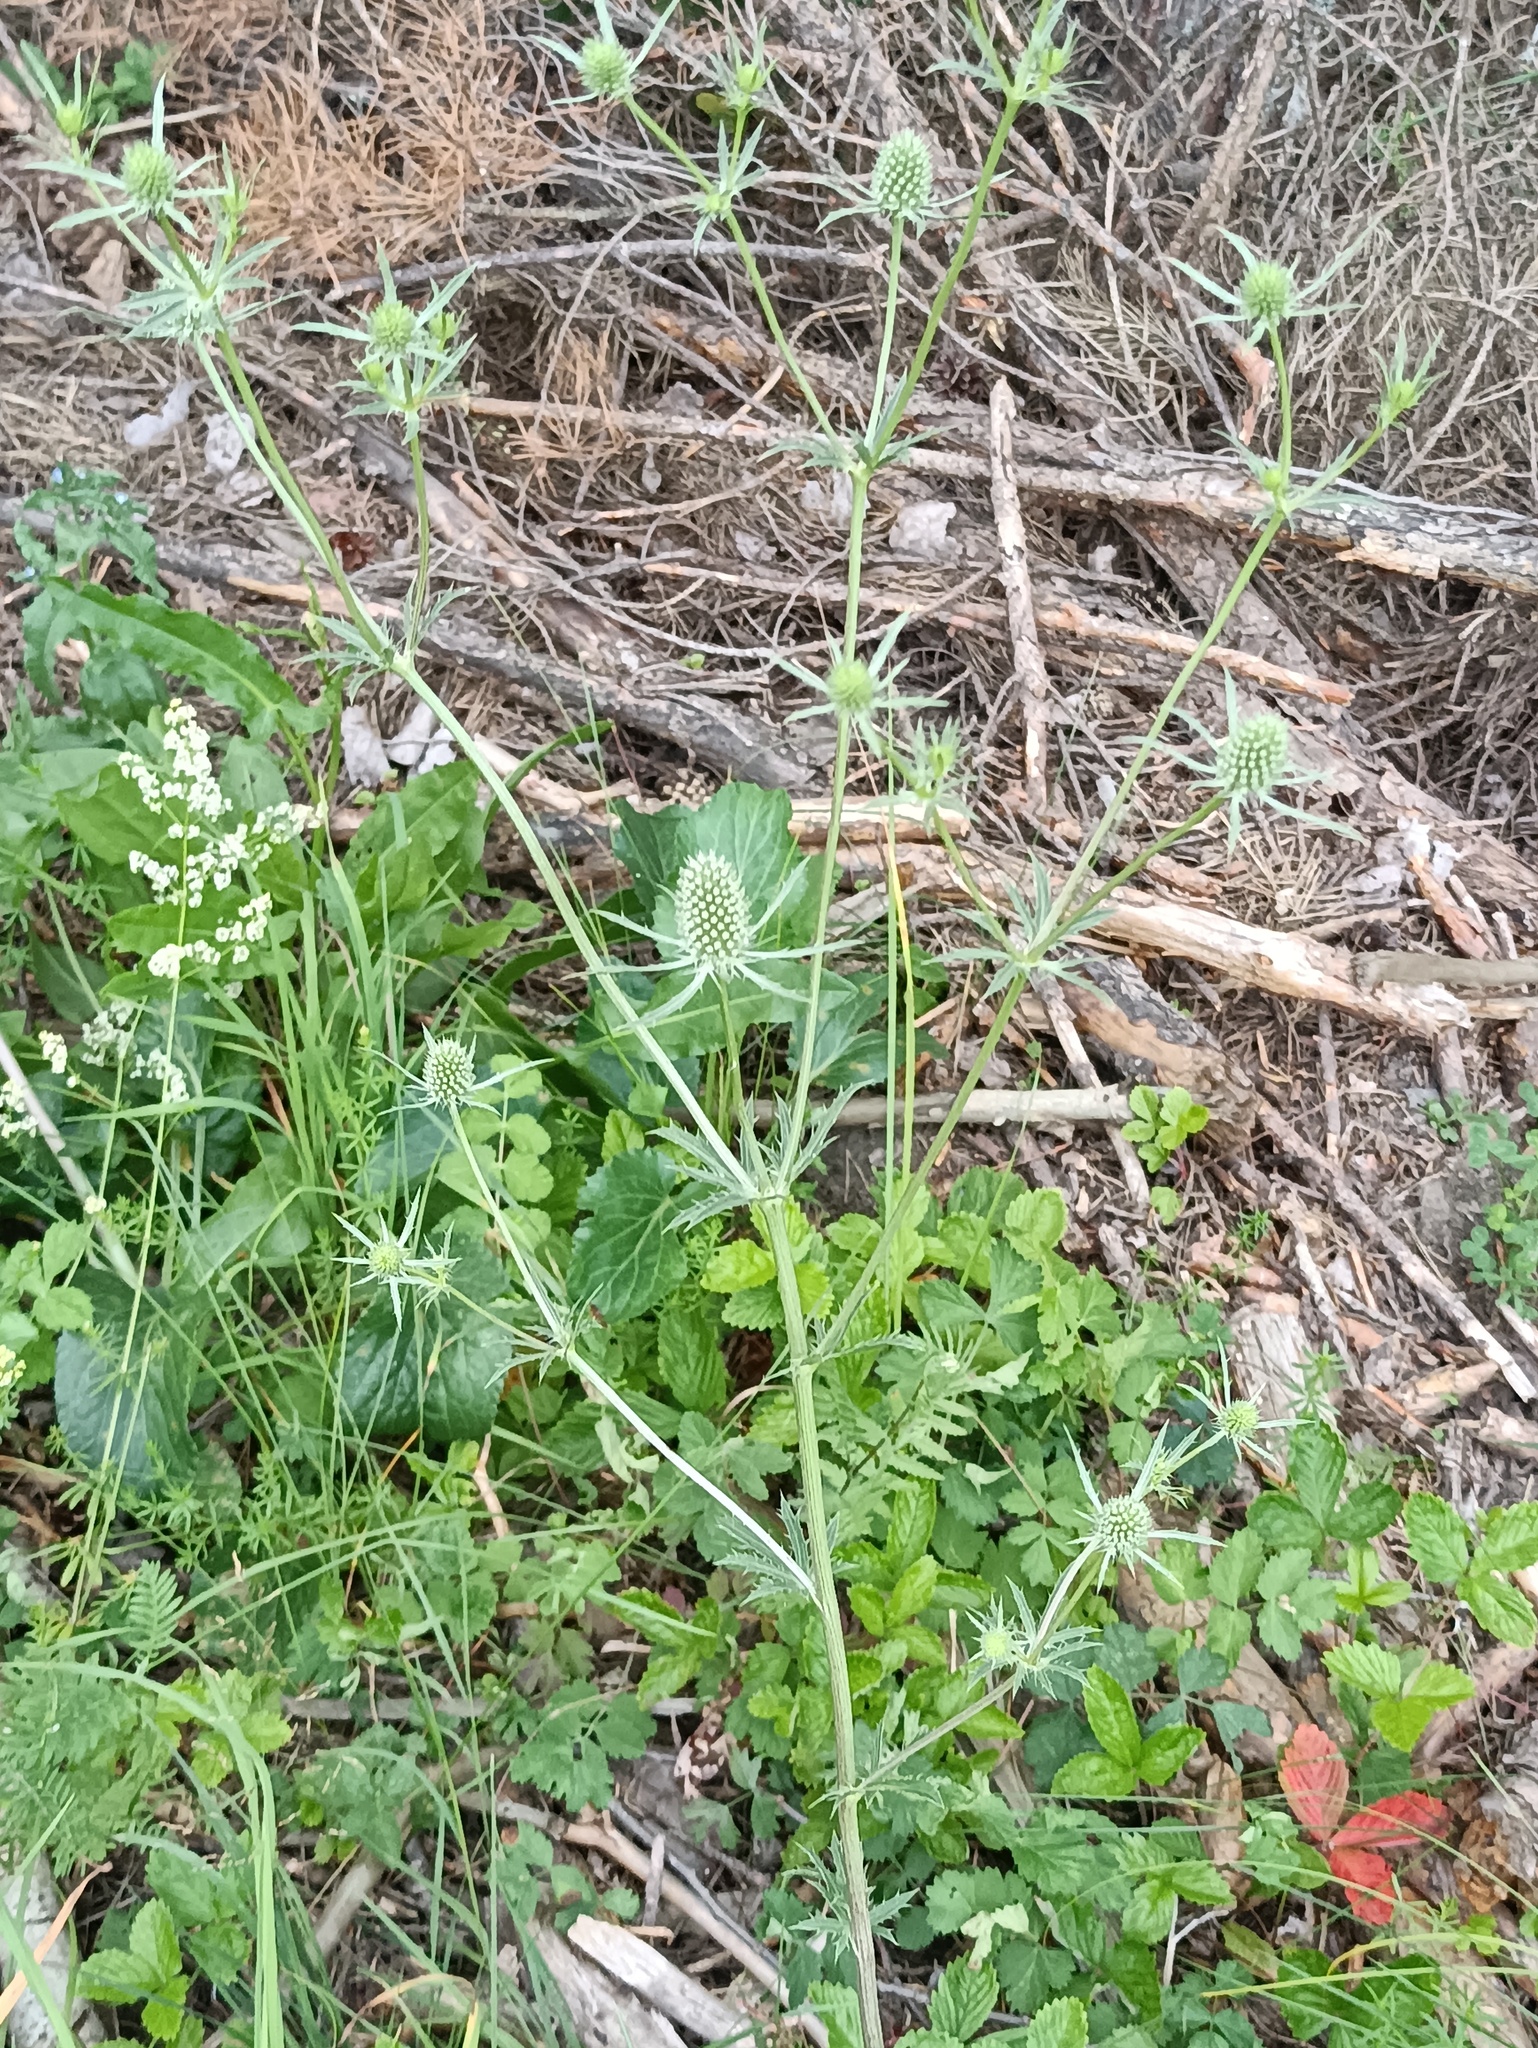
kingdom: Plantae
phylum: Tracheophyta
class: Magnoliopsida
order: Apiales
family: Apiaceae
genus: Eryngium
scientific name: Eryngium planum
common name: Blue eryngo
